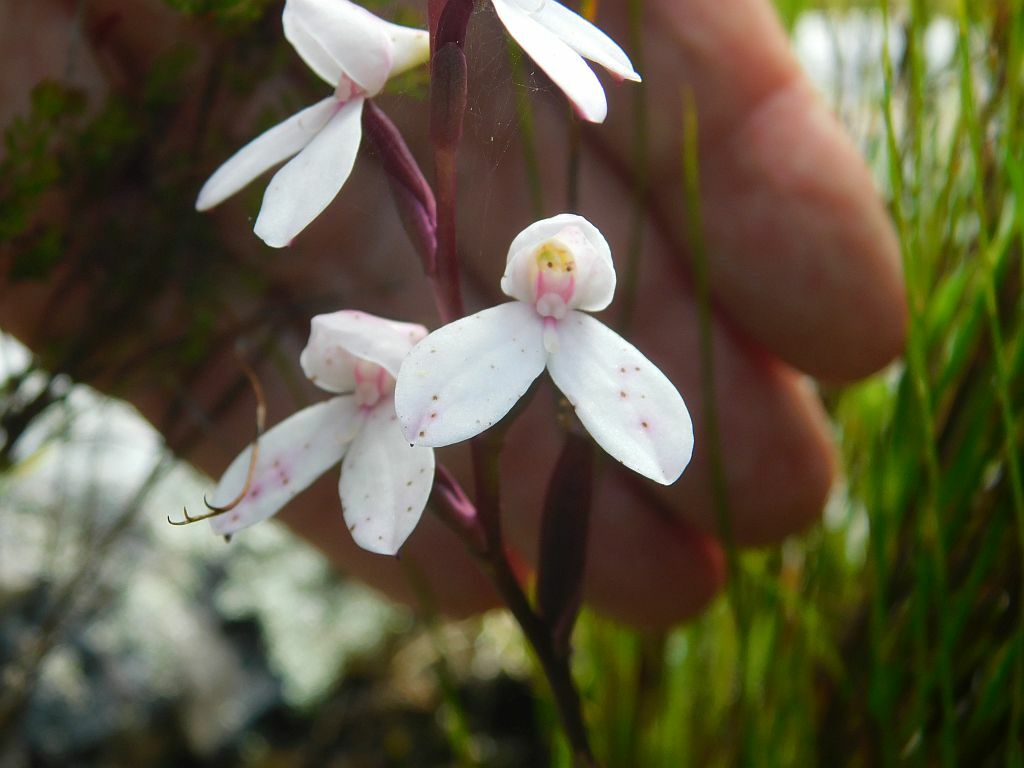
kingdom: Plantae
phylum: Tracheophyta
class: Liliopsida
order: Asparagales
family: Orchidaceae
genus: Disa
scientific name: Disa tripetaloides
